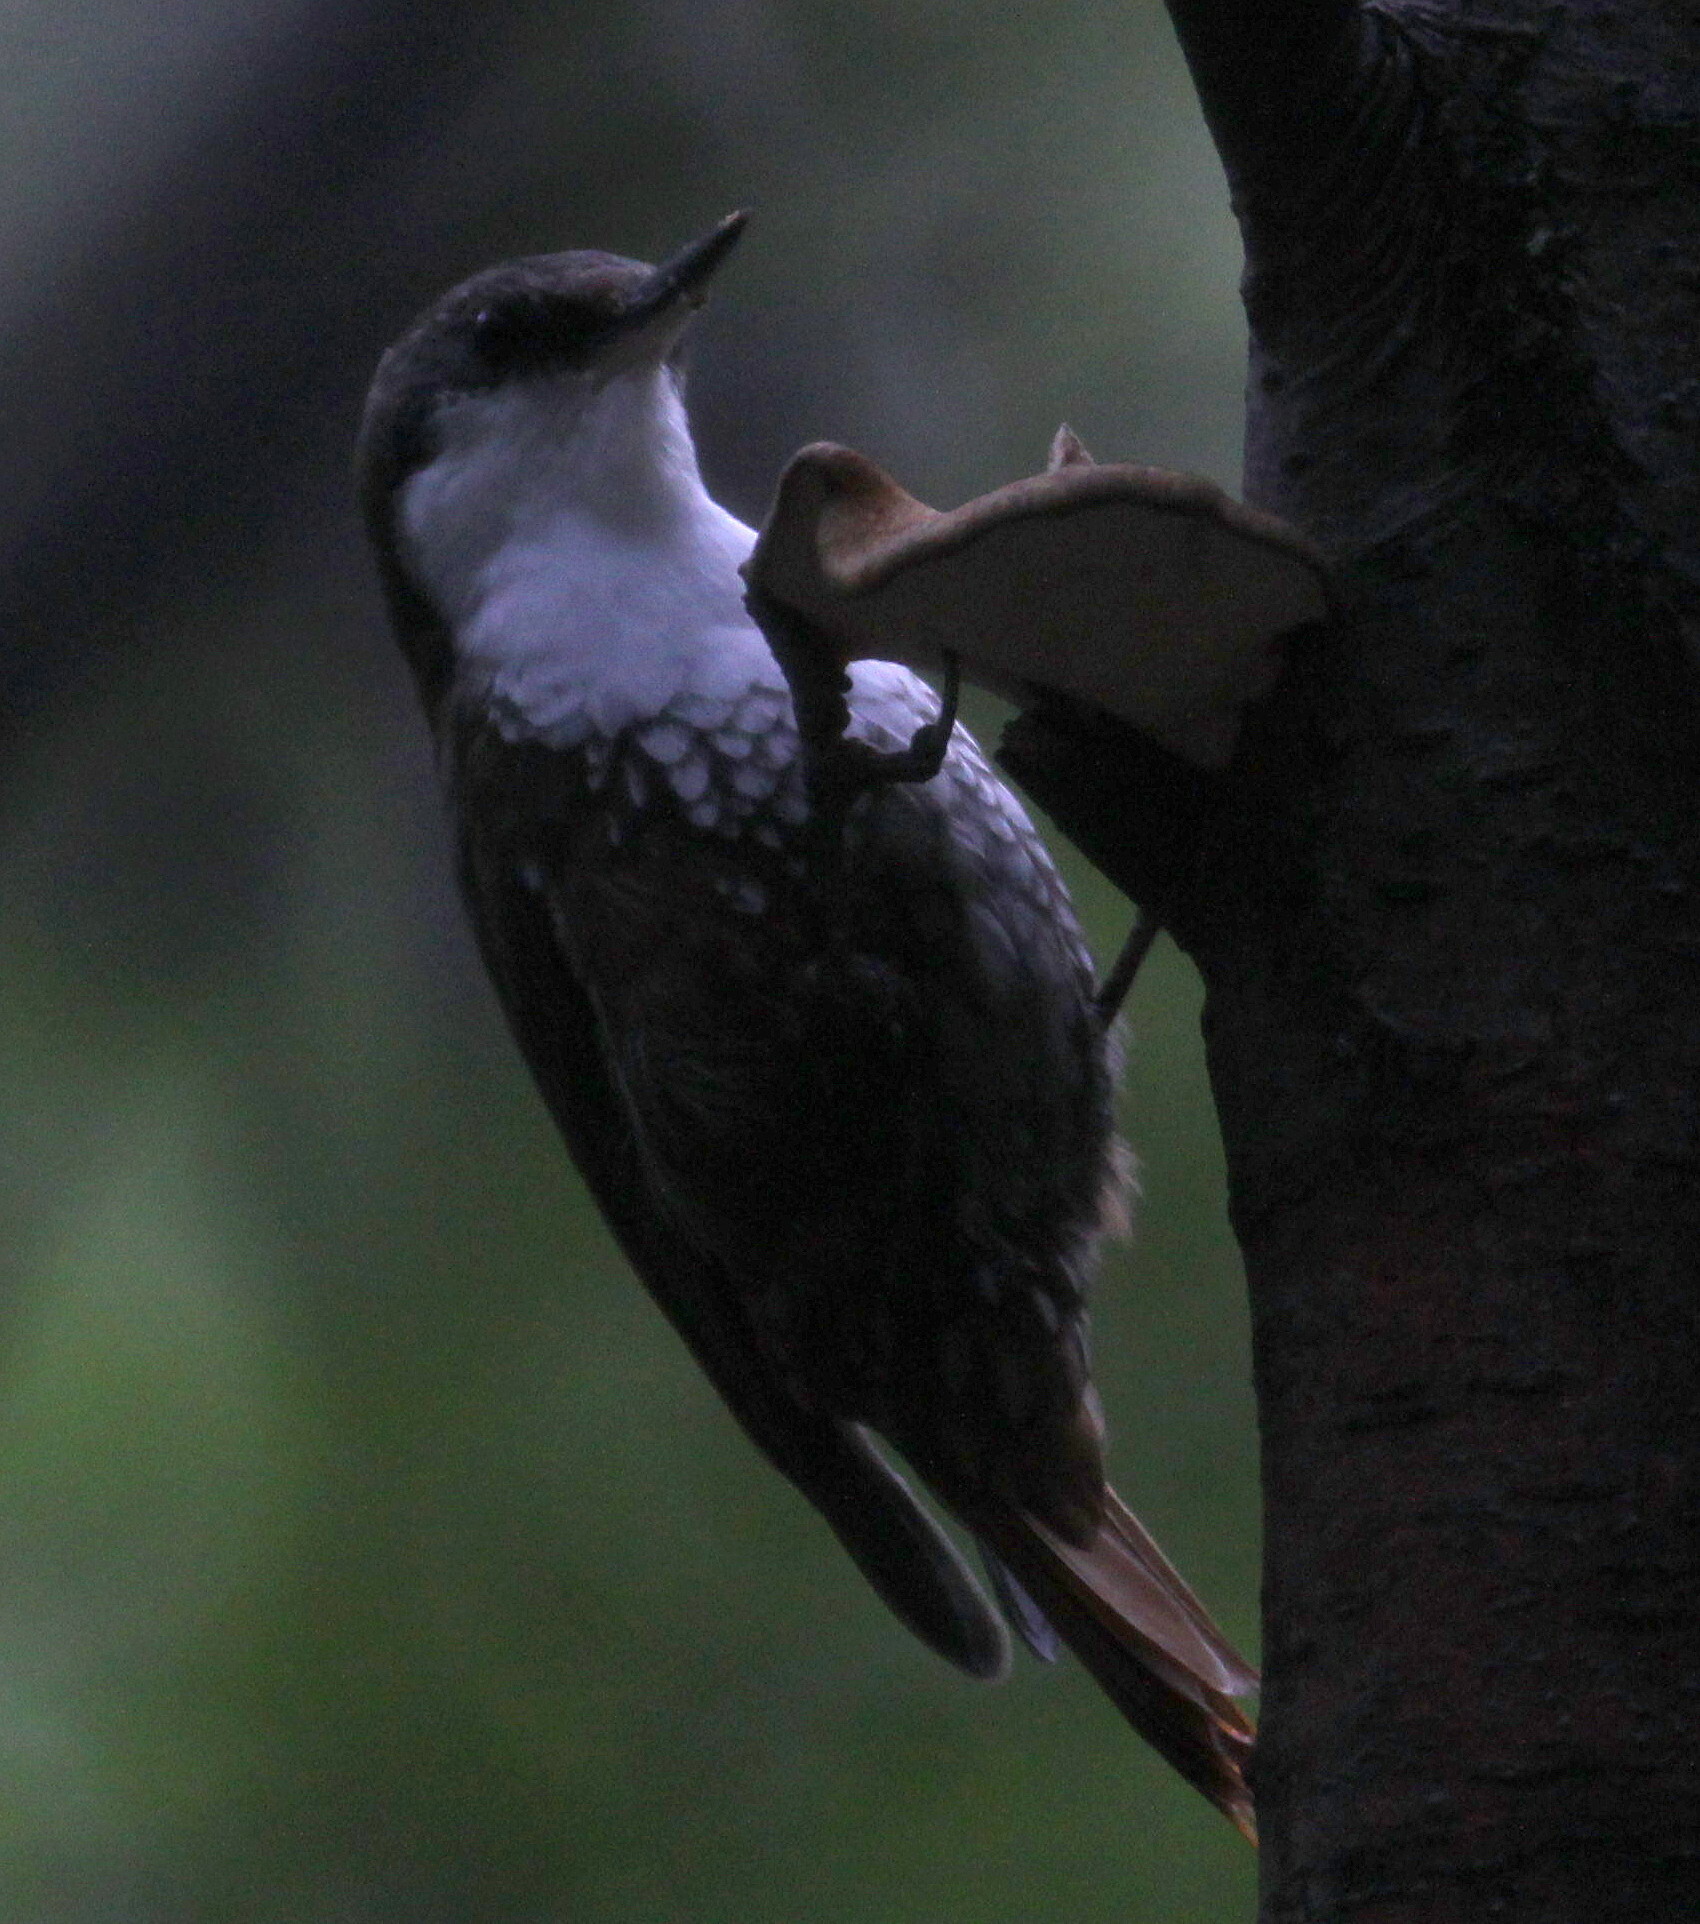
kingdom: Animalia
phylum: Chordata
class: Aves
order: Passeriformes
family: Furnariidae
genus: Pygarrhichas
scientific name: Pygarrhichas albogularis
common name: White-throated treerunner
